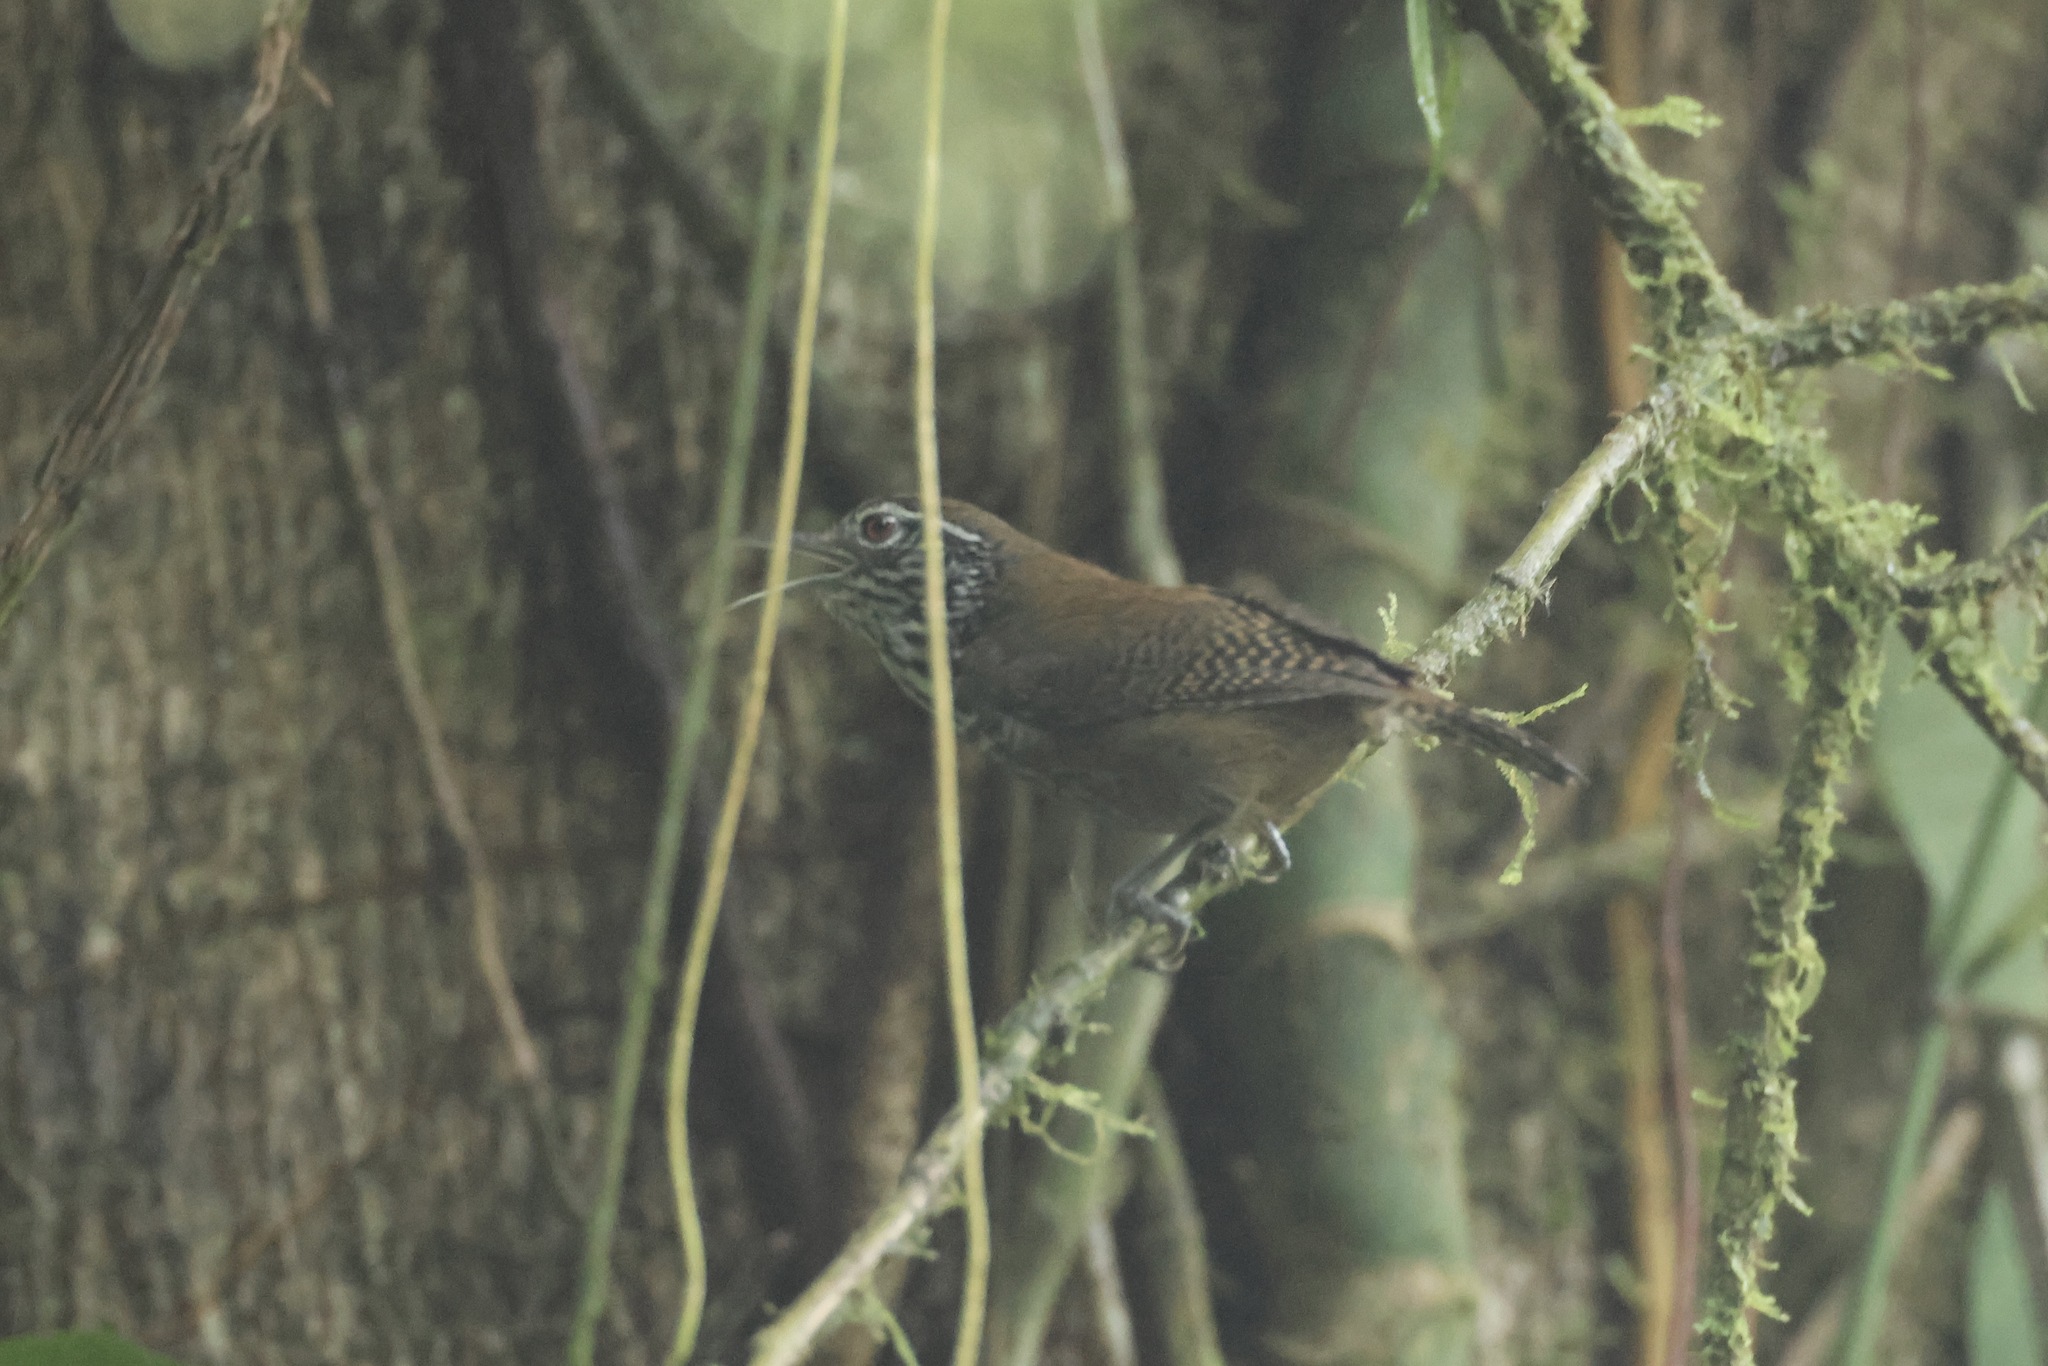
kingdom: Animalia
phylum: Chordata
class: Aves
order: Passeriformes
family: Troglodytidae
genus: Cantorchilus
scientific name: Cantorchilus thoracicus
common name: Stripe-breasted wren
